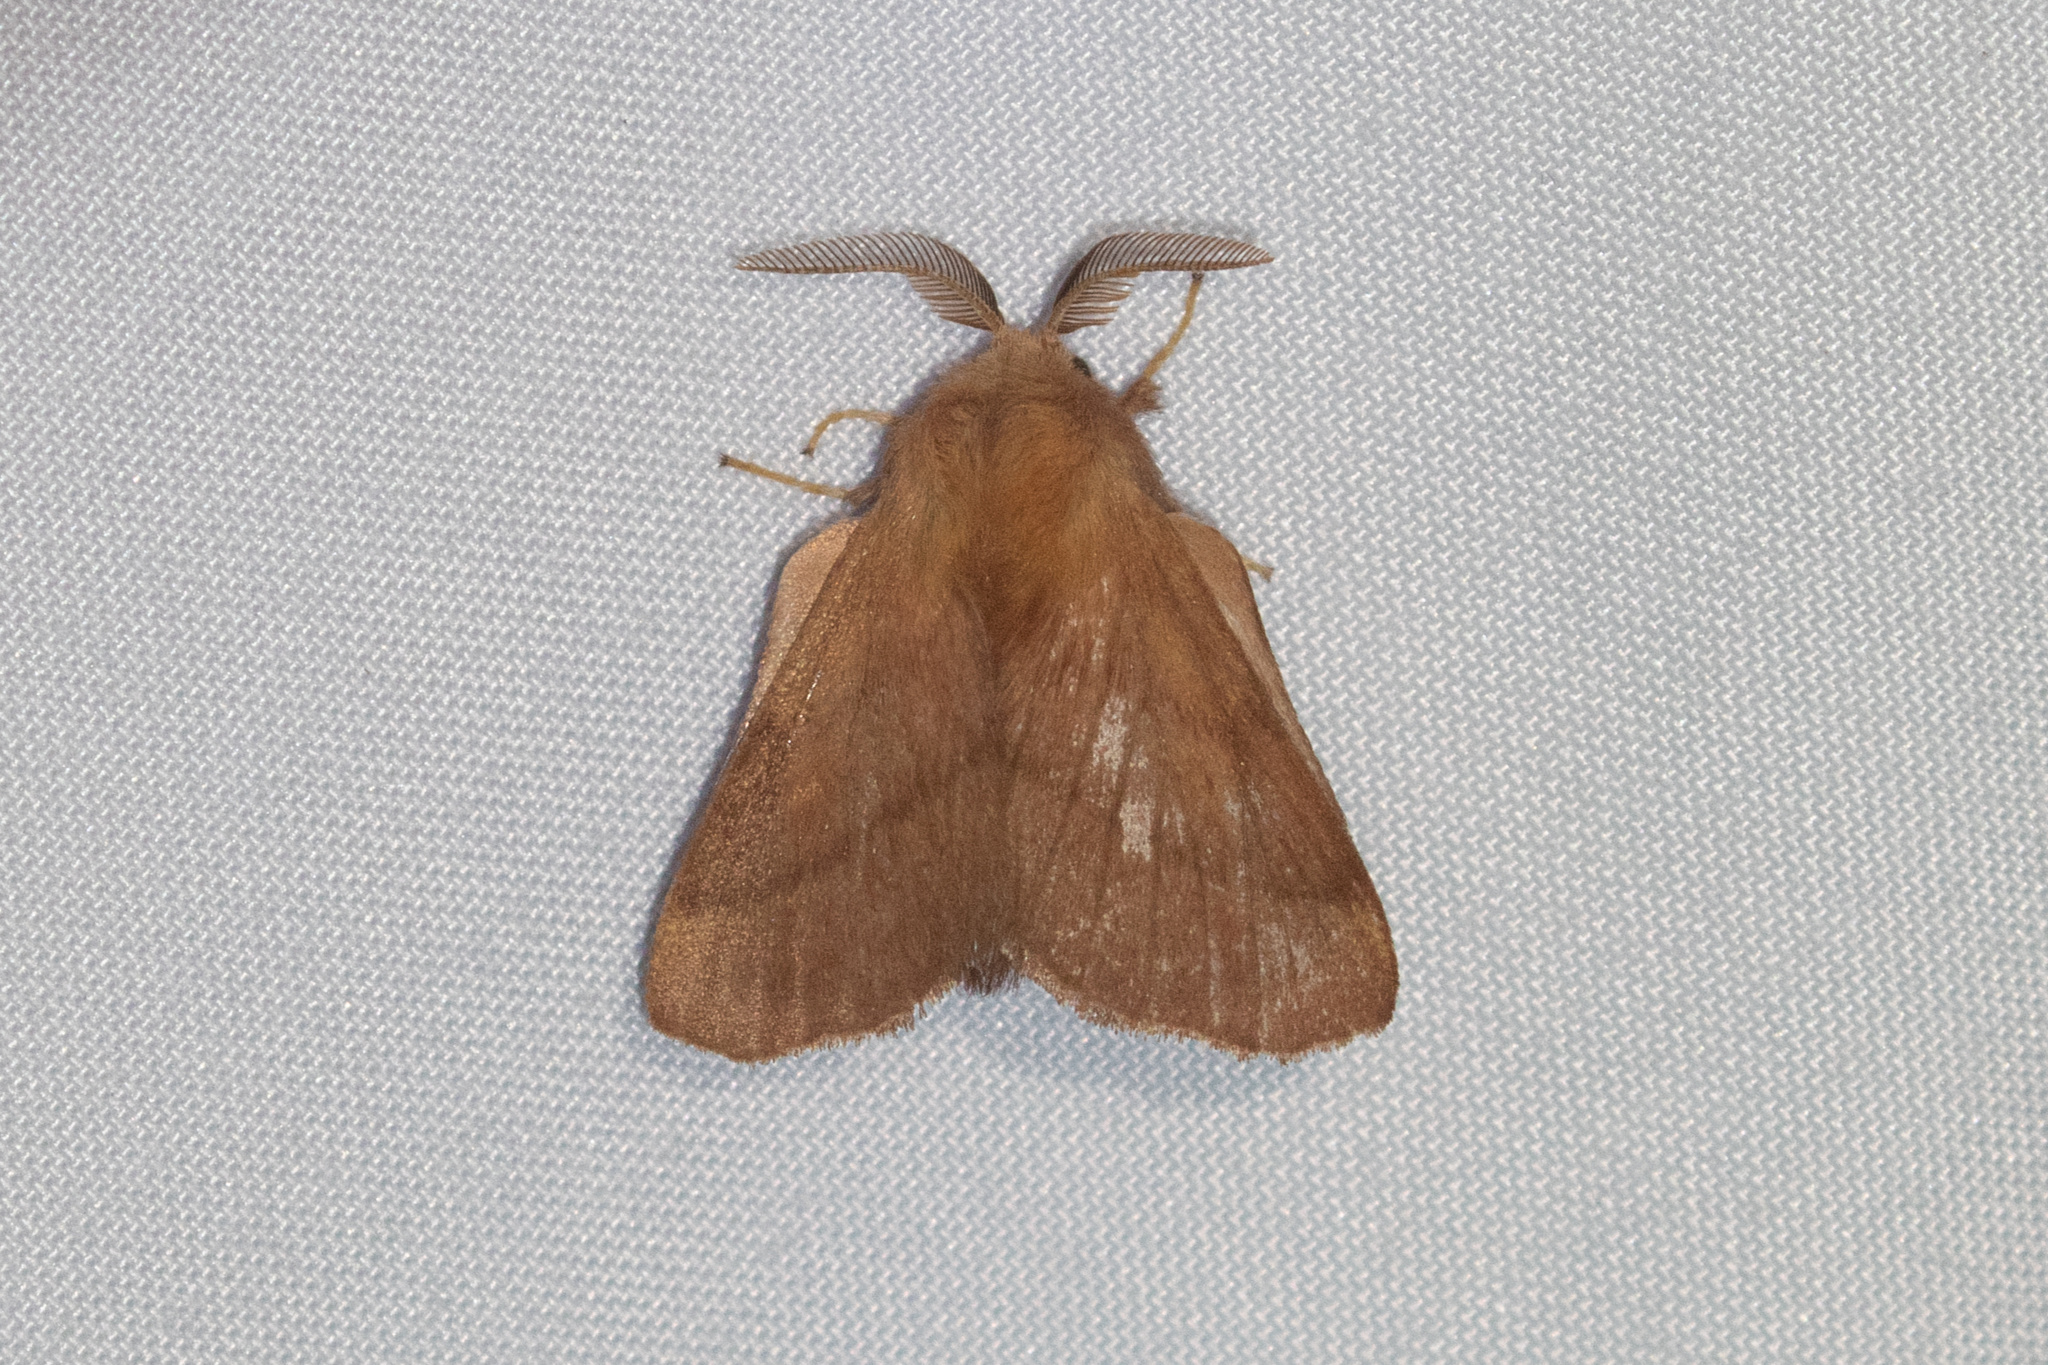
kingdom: Animalia
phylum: Arthropoda
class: Insecta
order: Lepidoptera
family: Lasiocampidae
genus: Malacosoma
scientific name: Malacosoma disstria
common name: Forest tent caterpillar
